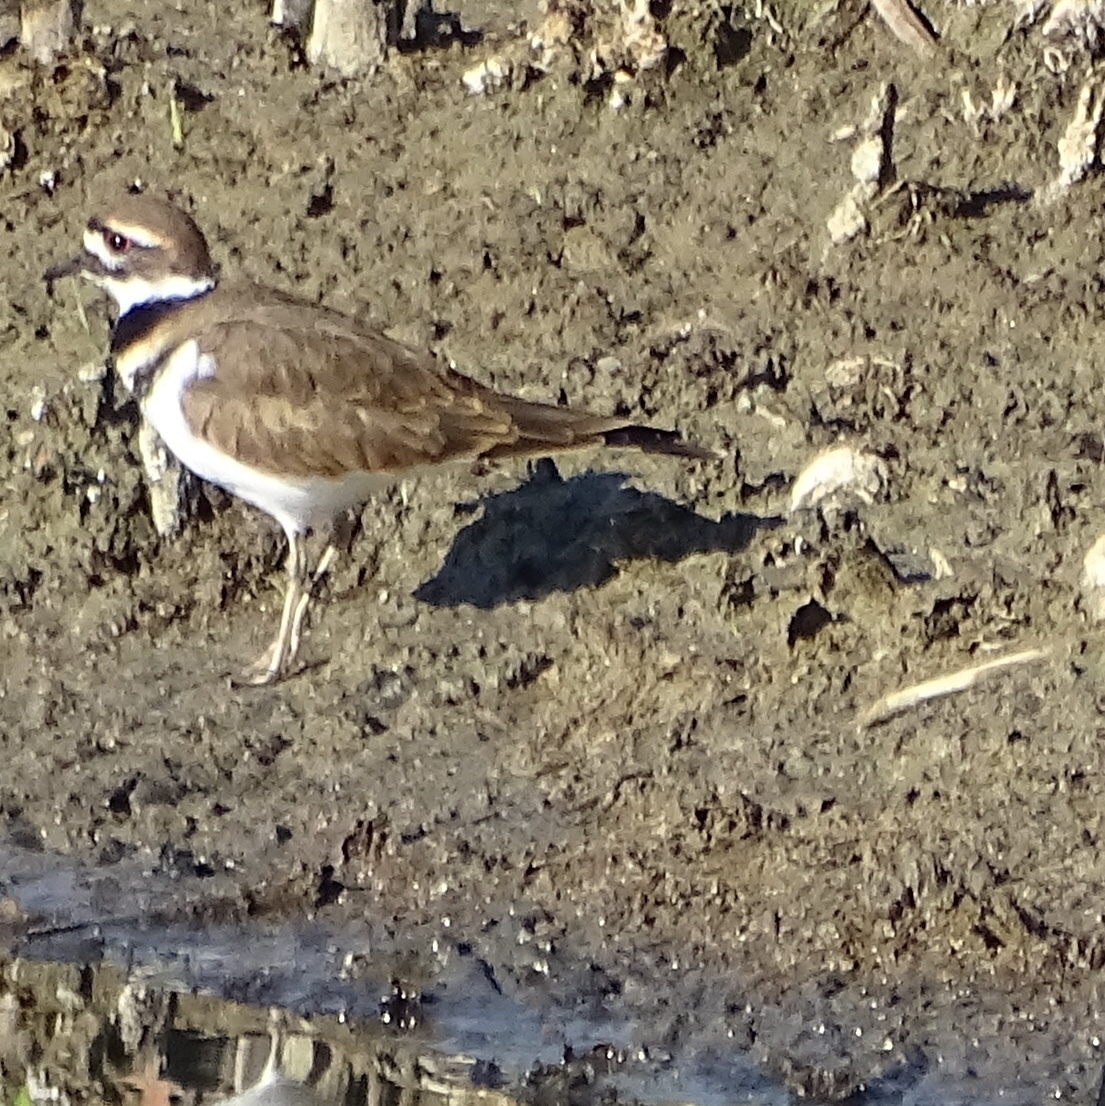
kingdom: Animalia
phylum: Chordata
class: Aves
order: Charadriiformes
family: Charadriidae
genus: Charadrius
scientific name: Charadrius vociferus
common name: Killdeer
